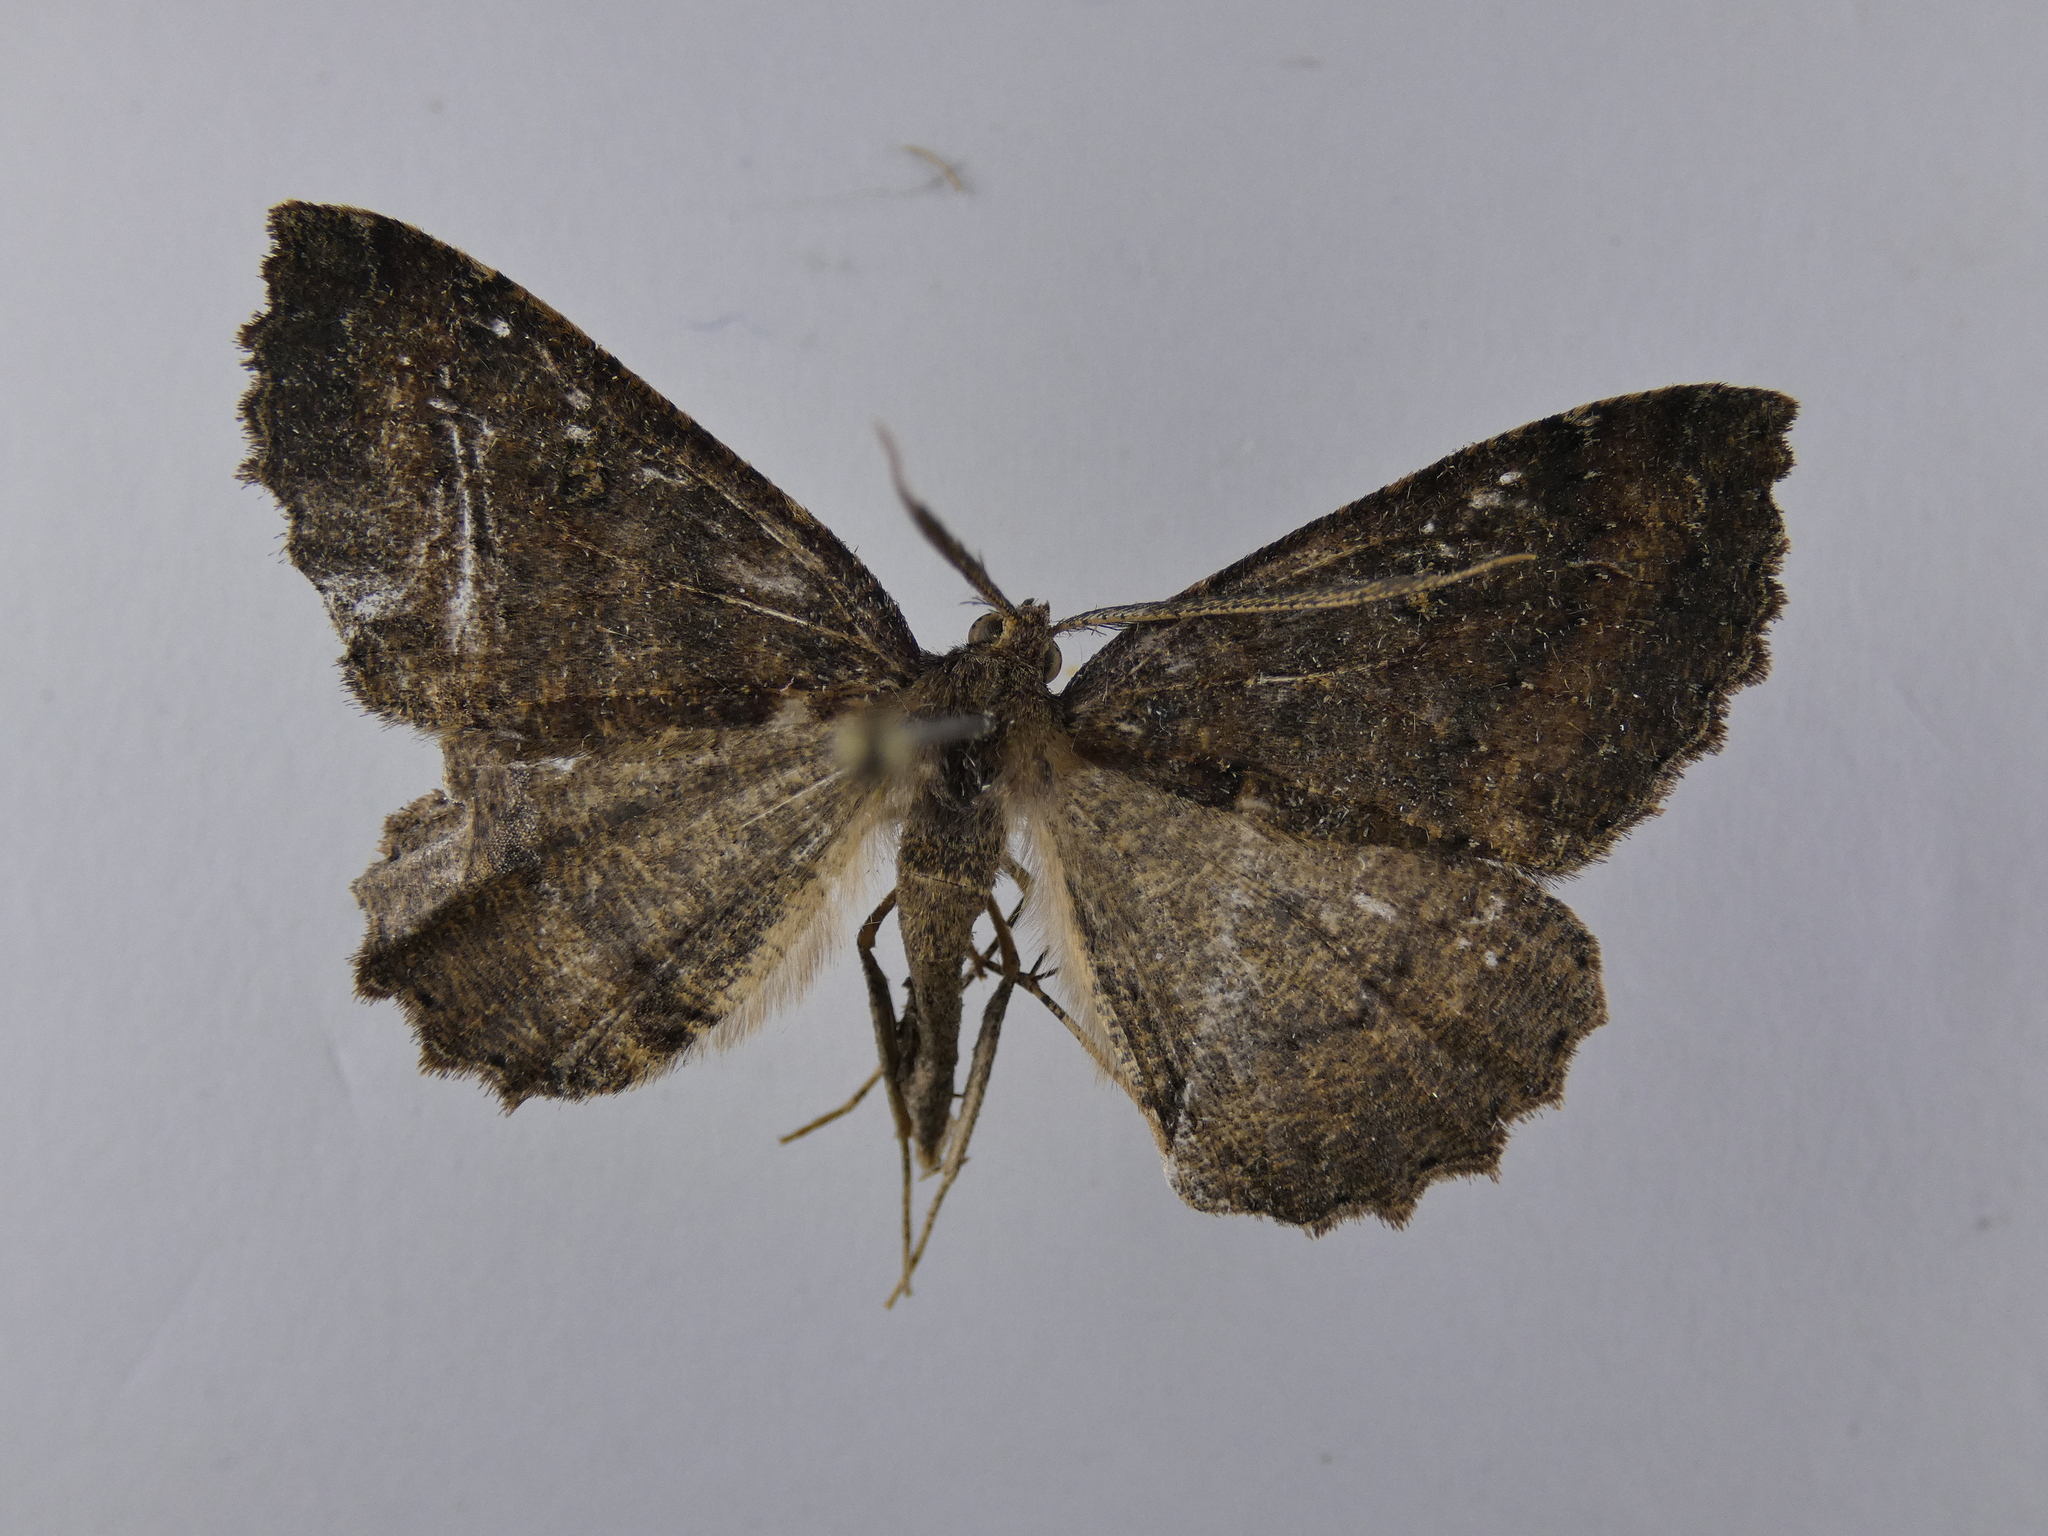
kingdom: Animalia
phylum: Arthropoda
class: Insecta
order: Lepidoptera
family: Geometridae
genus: Cleora
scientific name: Cleora scriptaria
